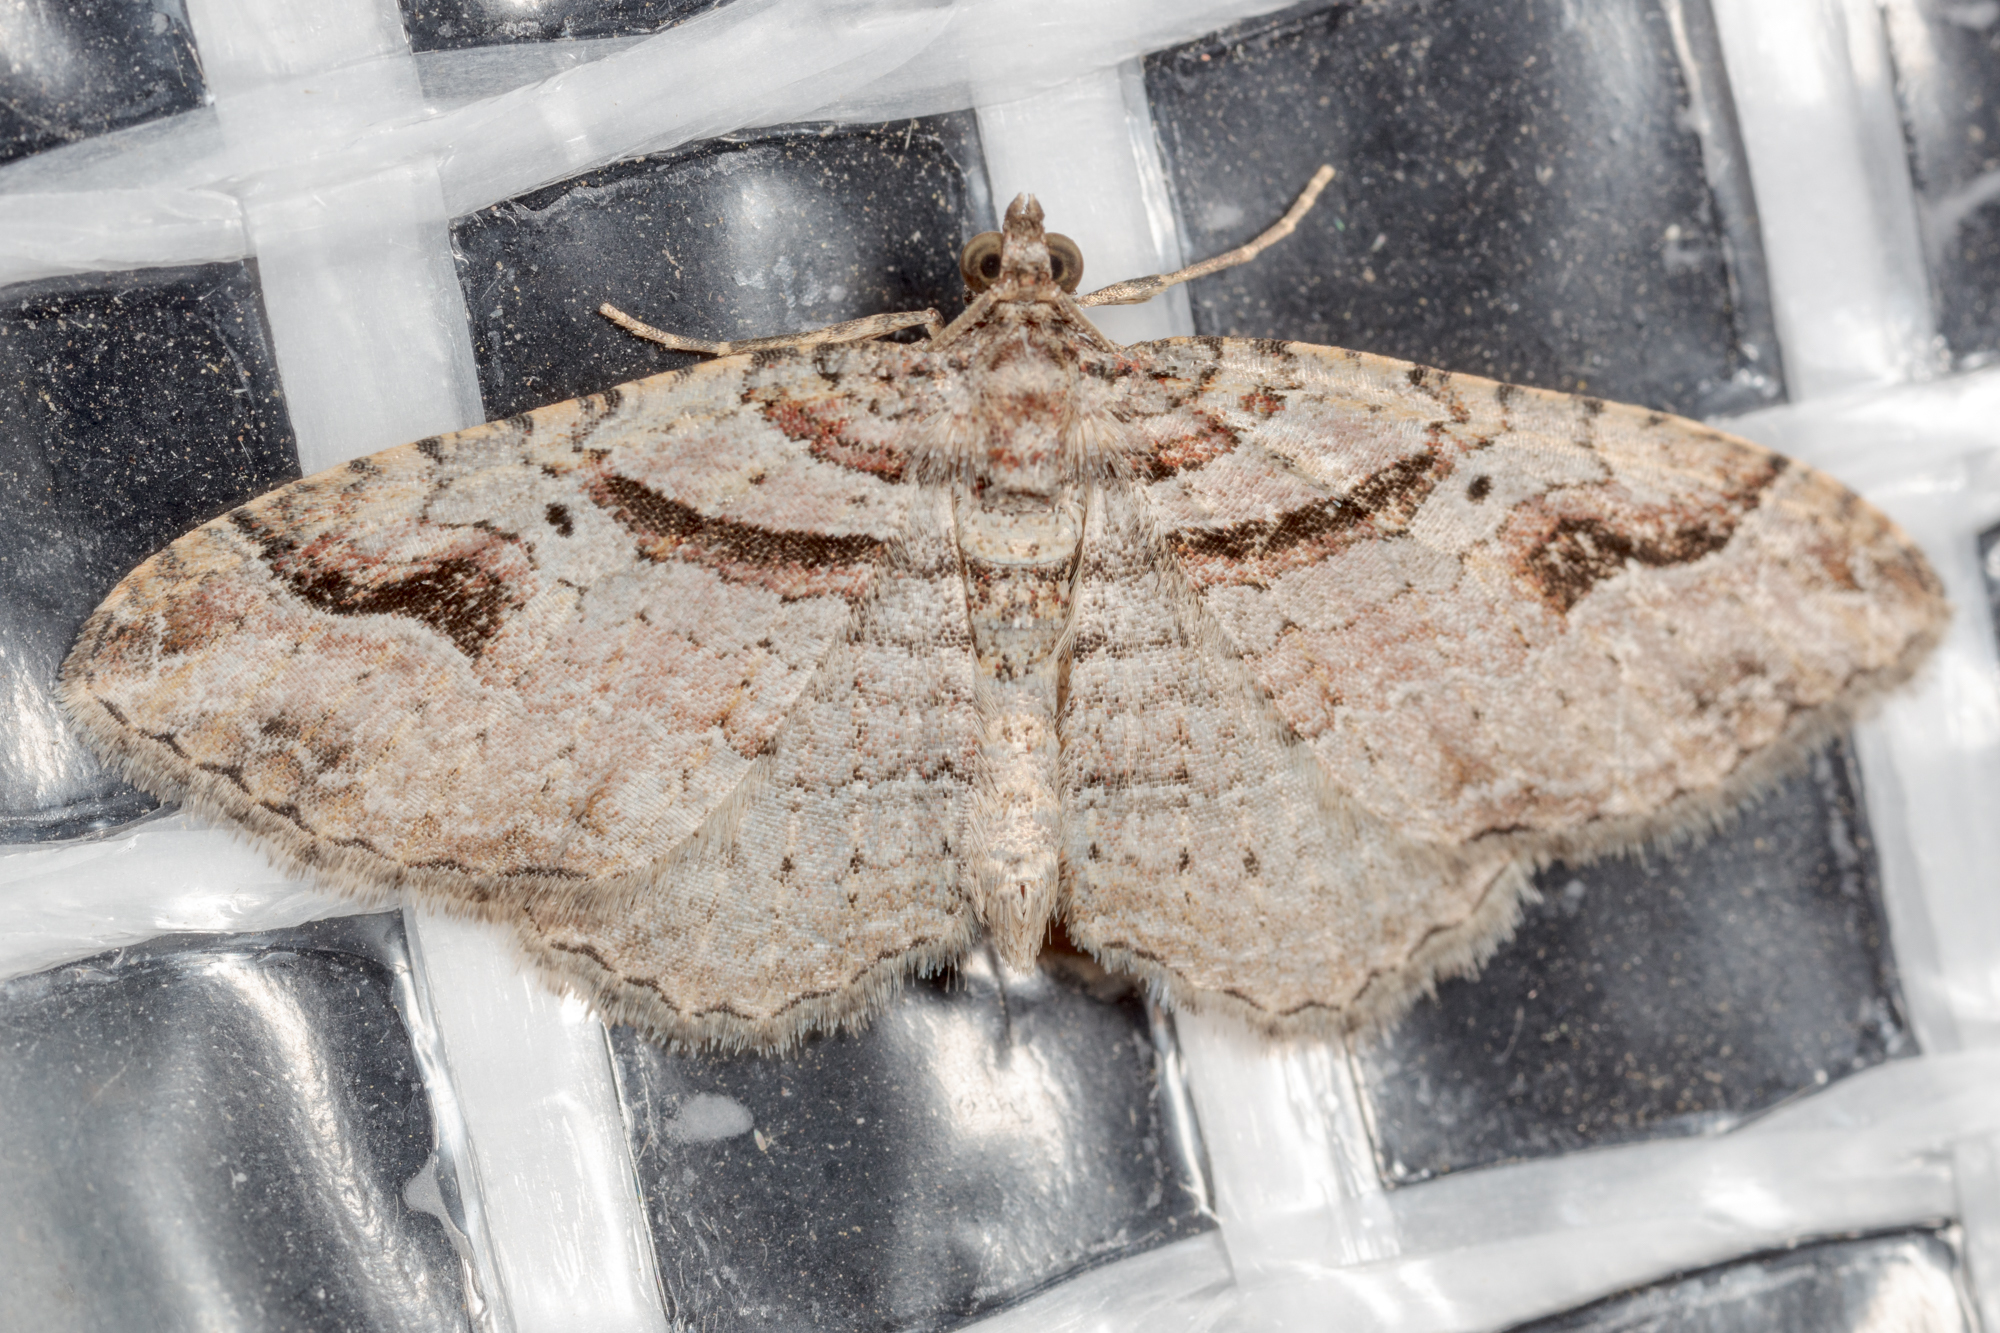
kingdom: Animalia
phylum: Arthropoda
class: Insecta
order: Lepidoptera
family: Geometridae
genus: Costaconvexa
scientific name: Costaconvexa centrostrigaria
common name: Bent-line carpet
